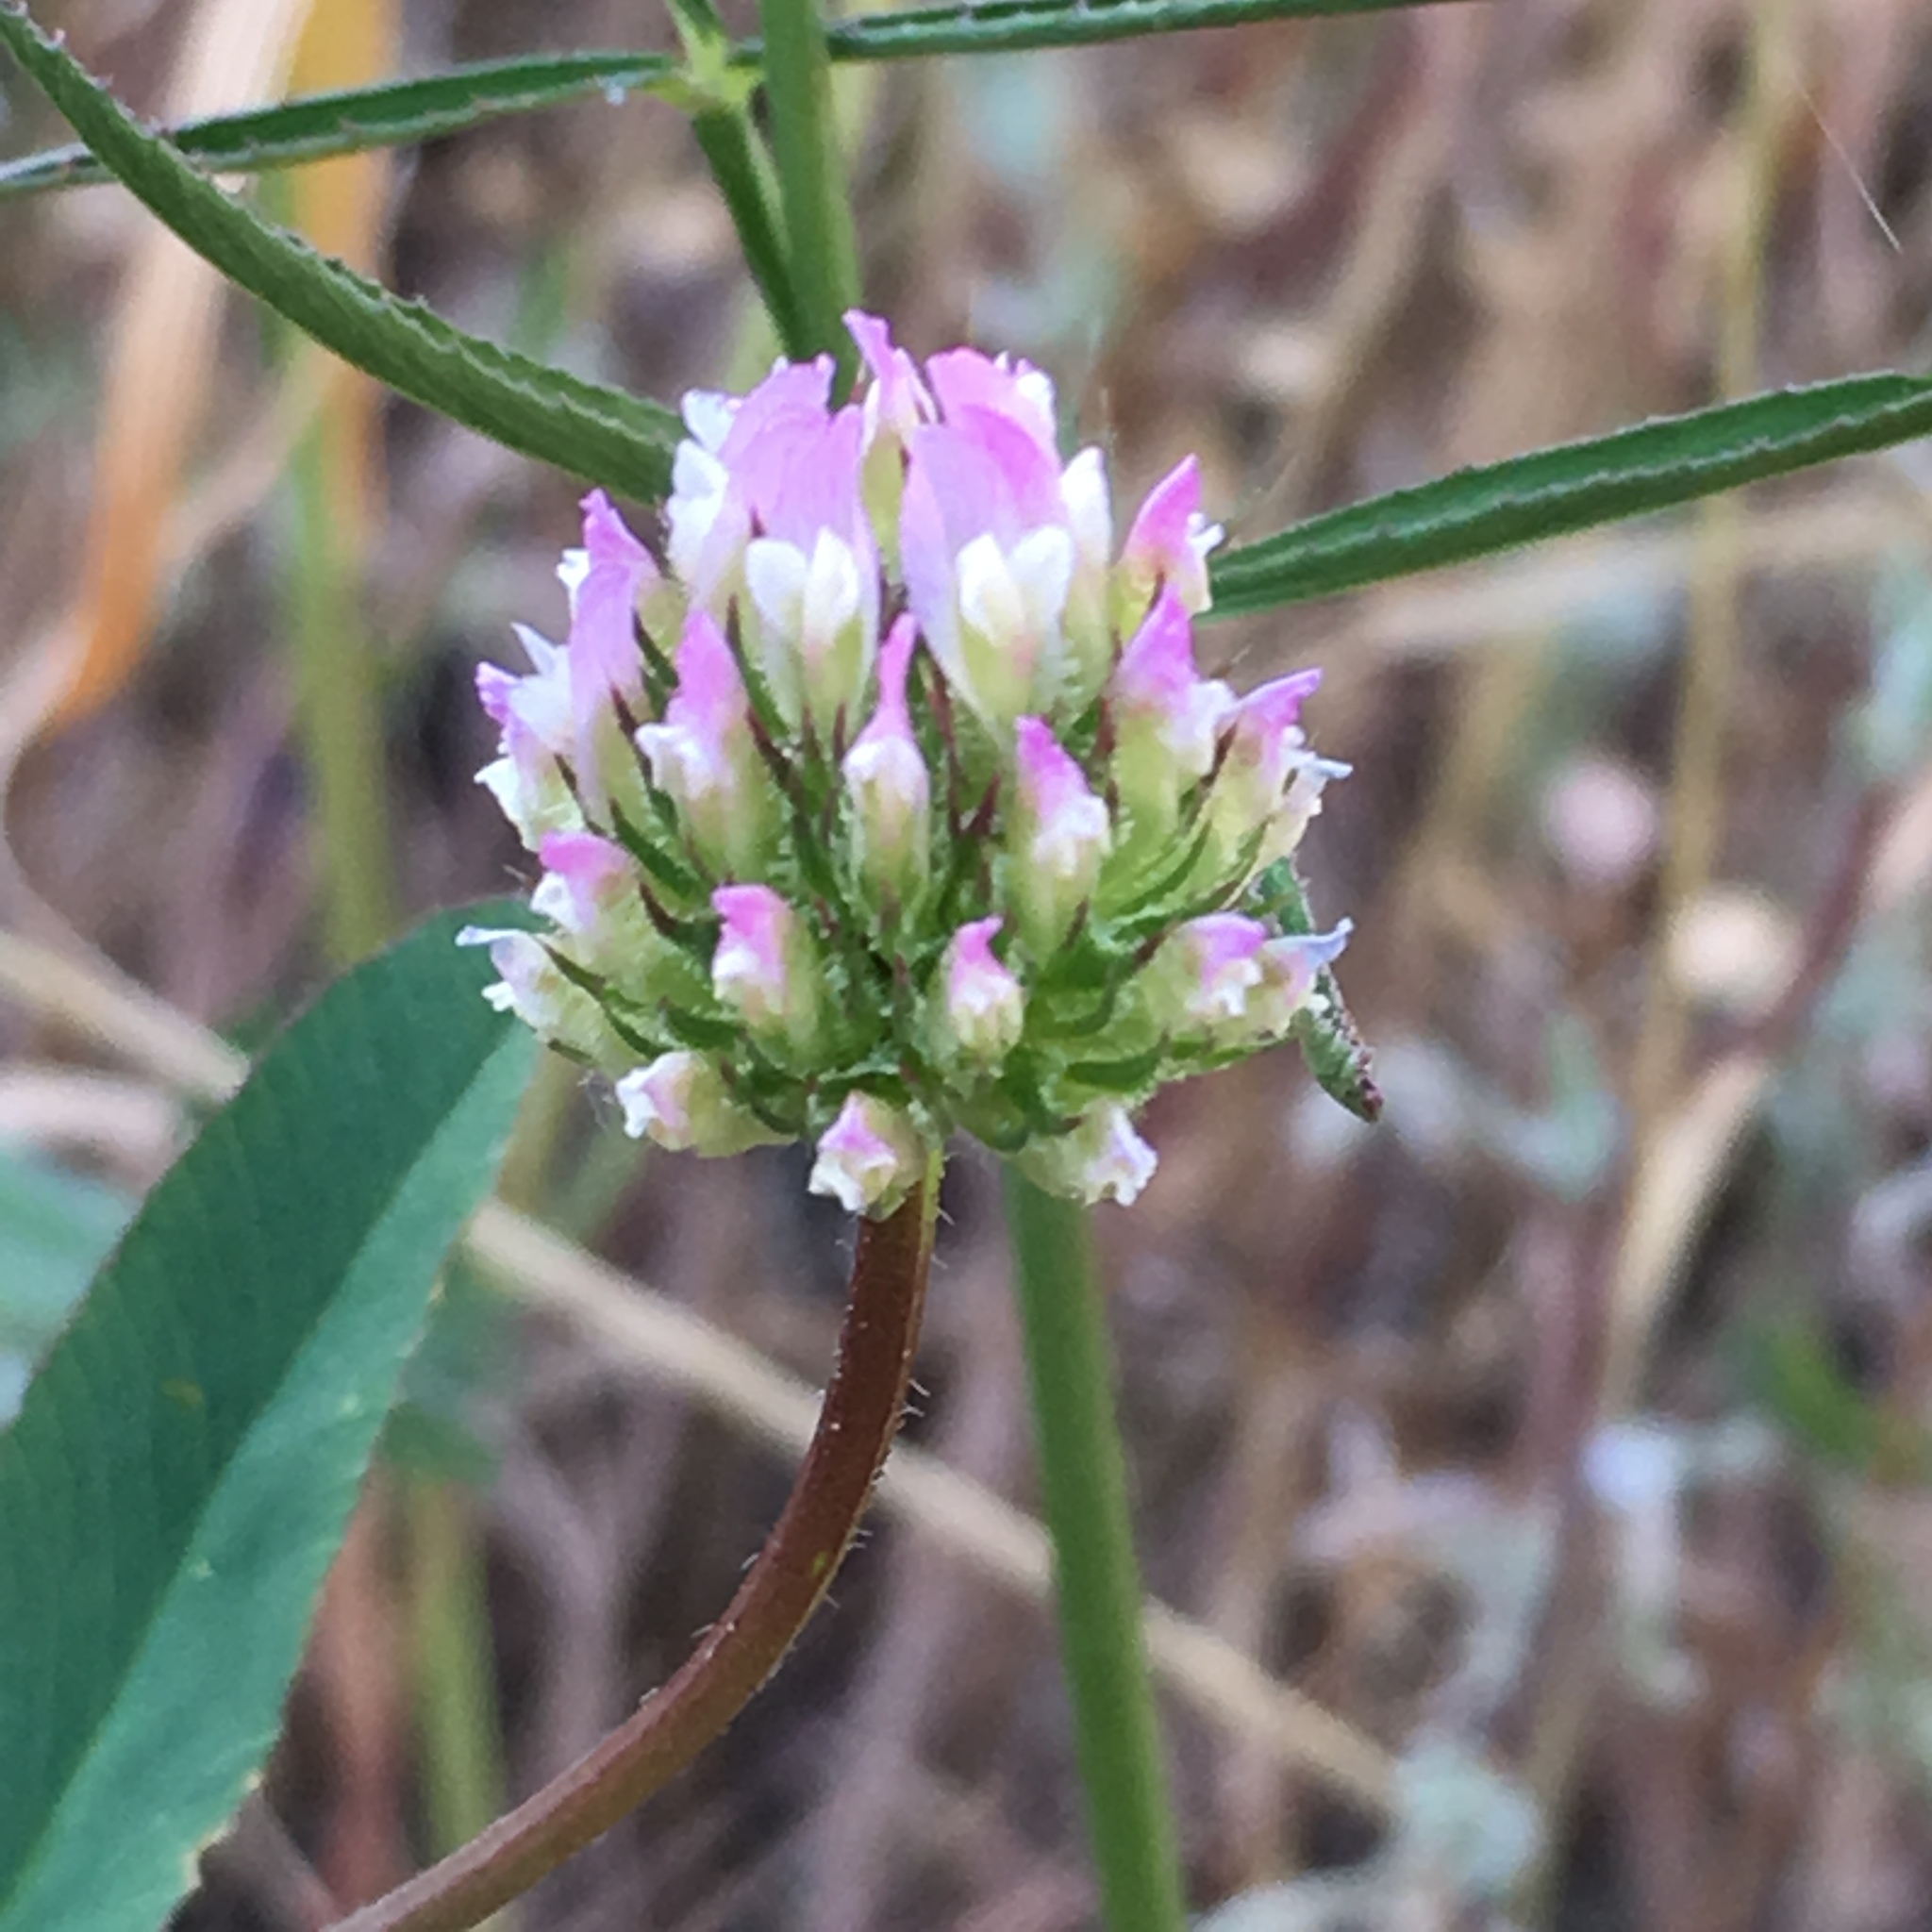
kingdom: Plantae
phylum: Tracheophyta
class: Magnoliopsida
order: Fabales
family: Fabaceae
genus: Trifolium
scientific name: Trifolium ciliolatum
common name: Foothill clover
